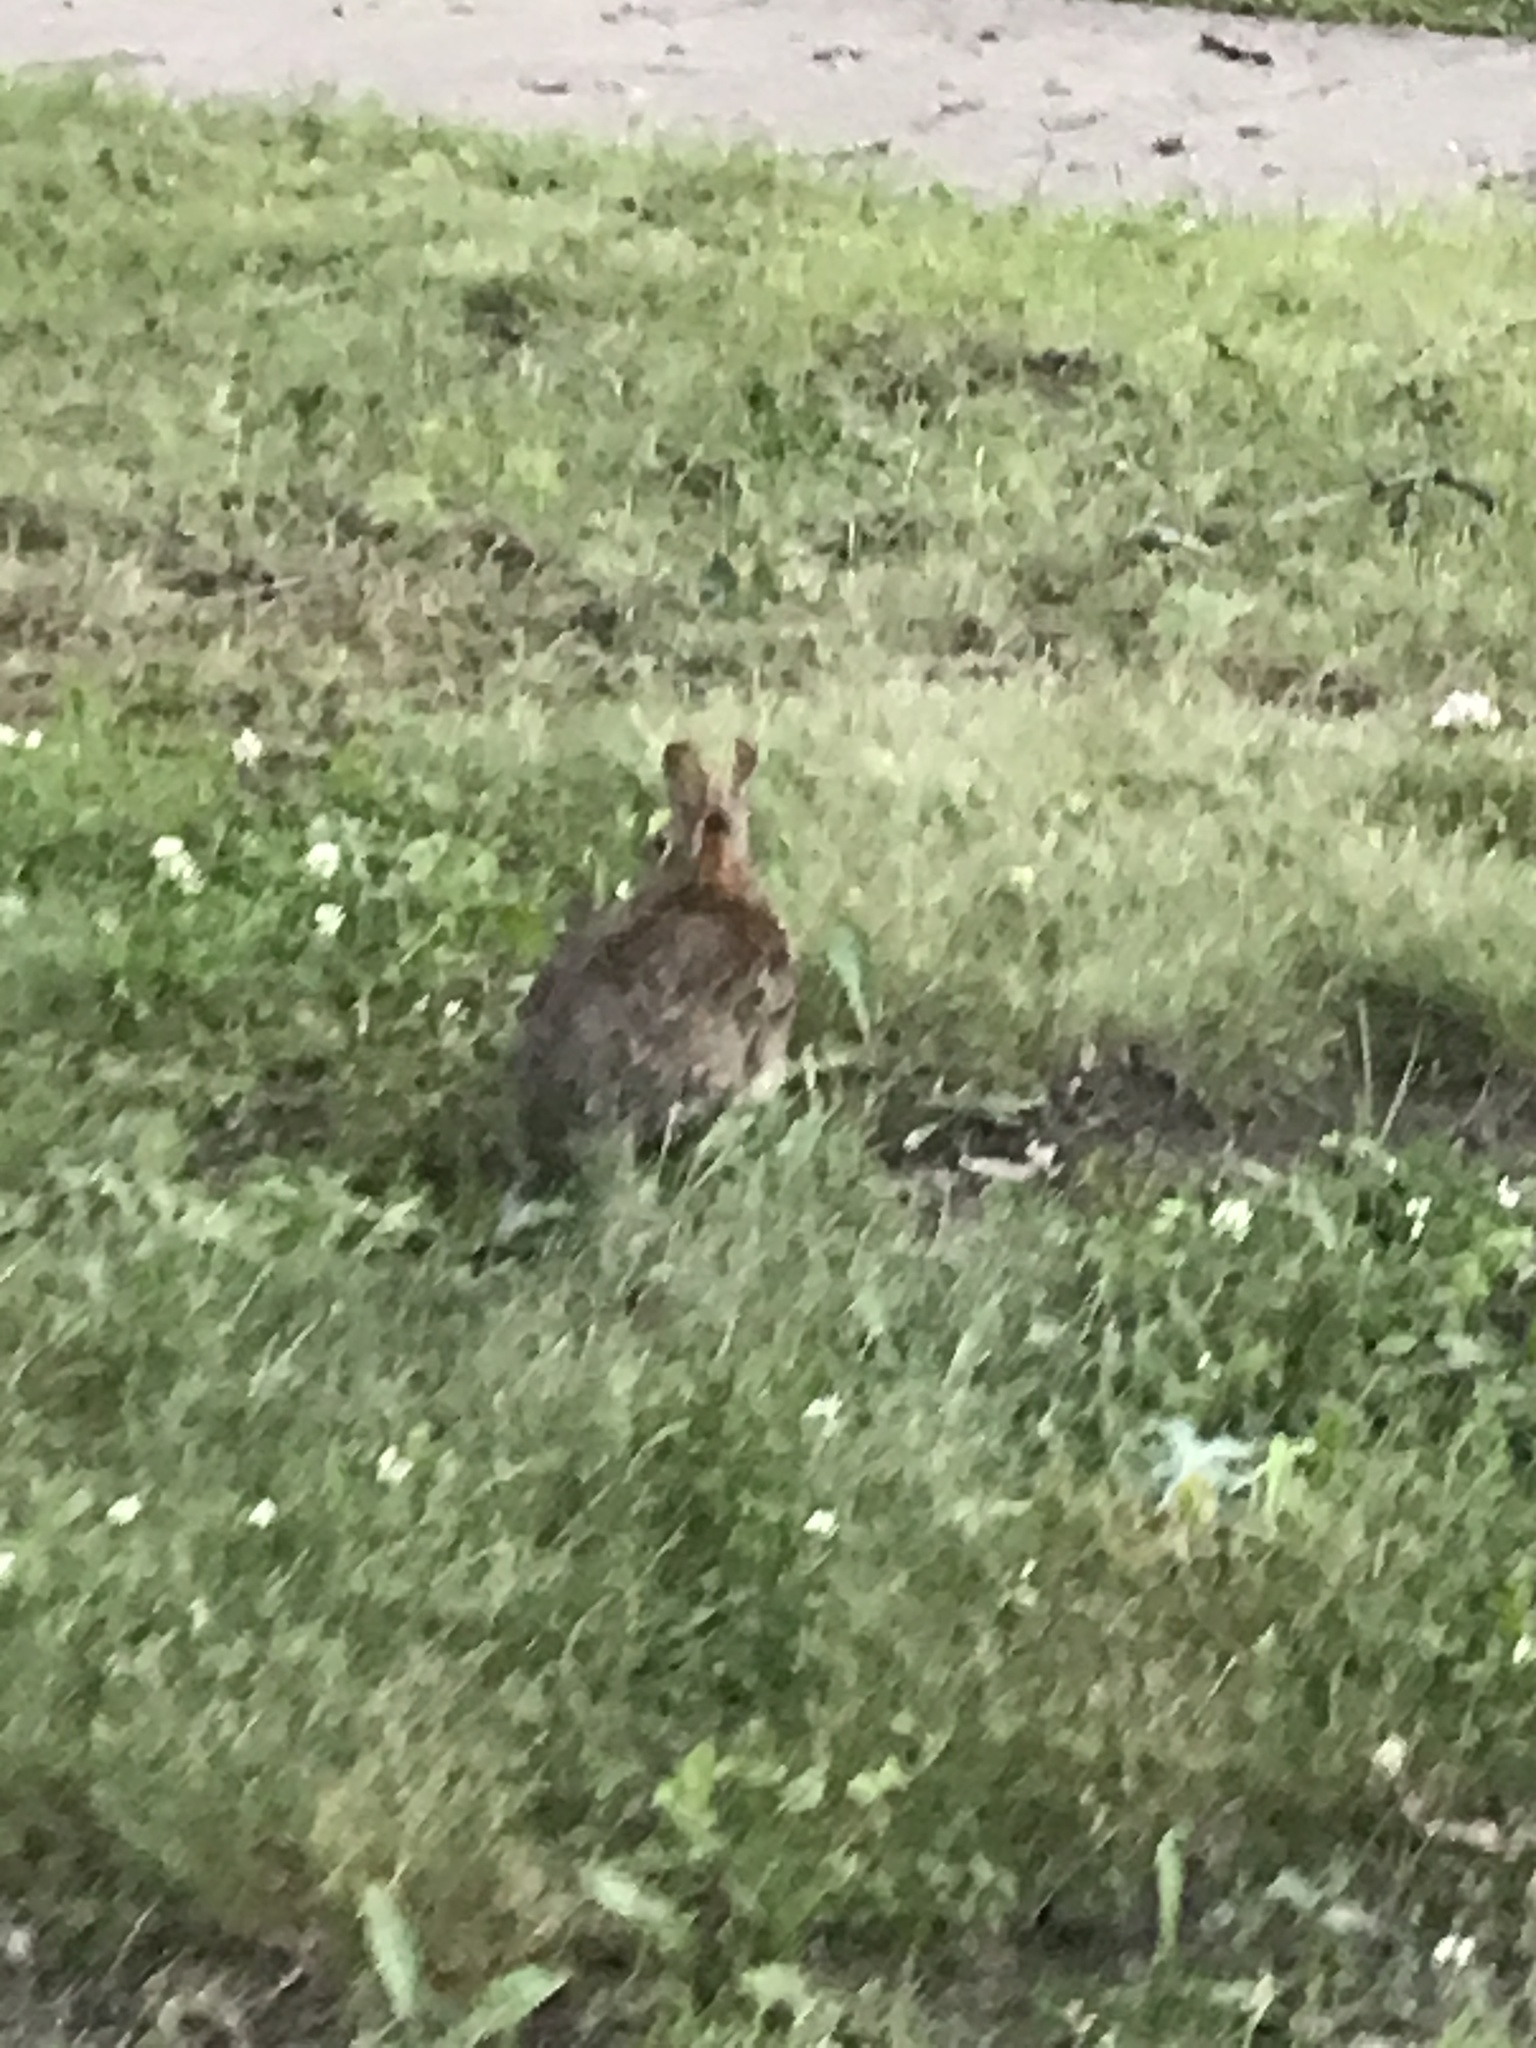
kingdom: Animalia
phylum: Chordata
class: Mammalia
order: Lagomorpha
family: Leporidae
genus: Sylvilagus
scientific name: Sylvilagus floridanus
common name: Eastern cottontail
